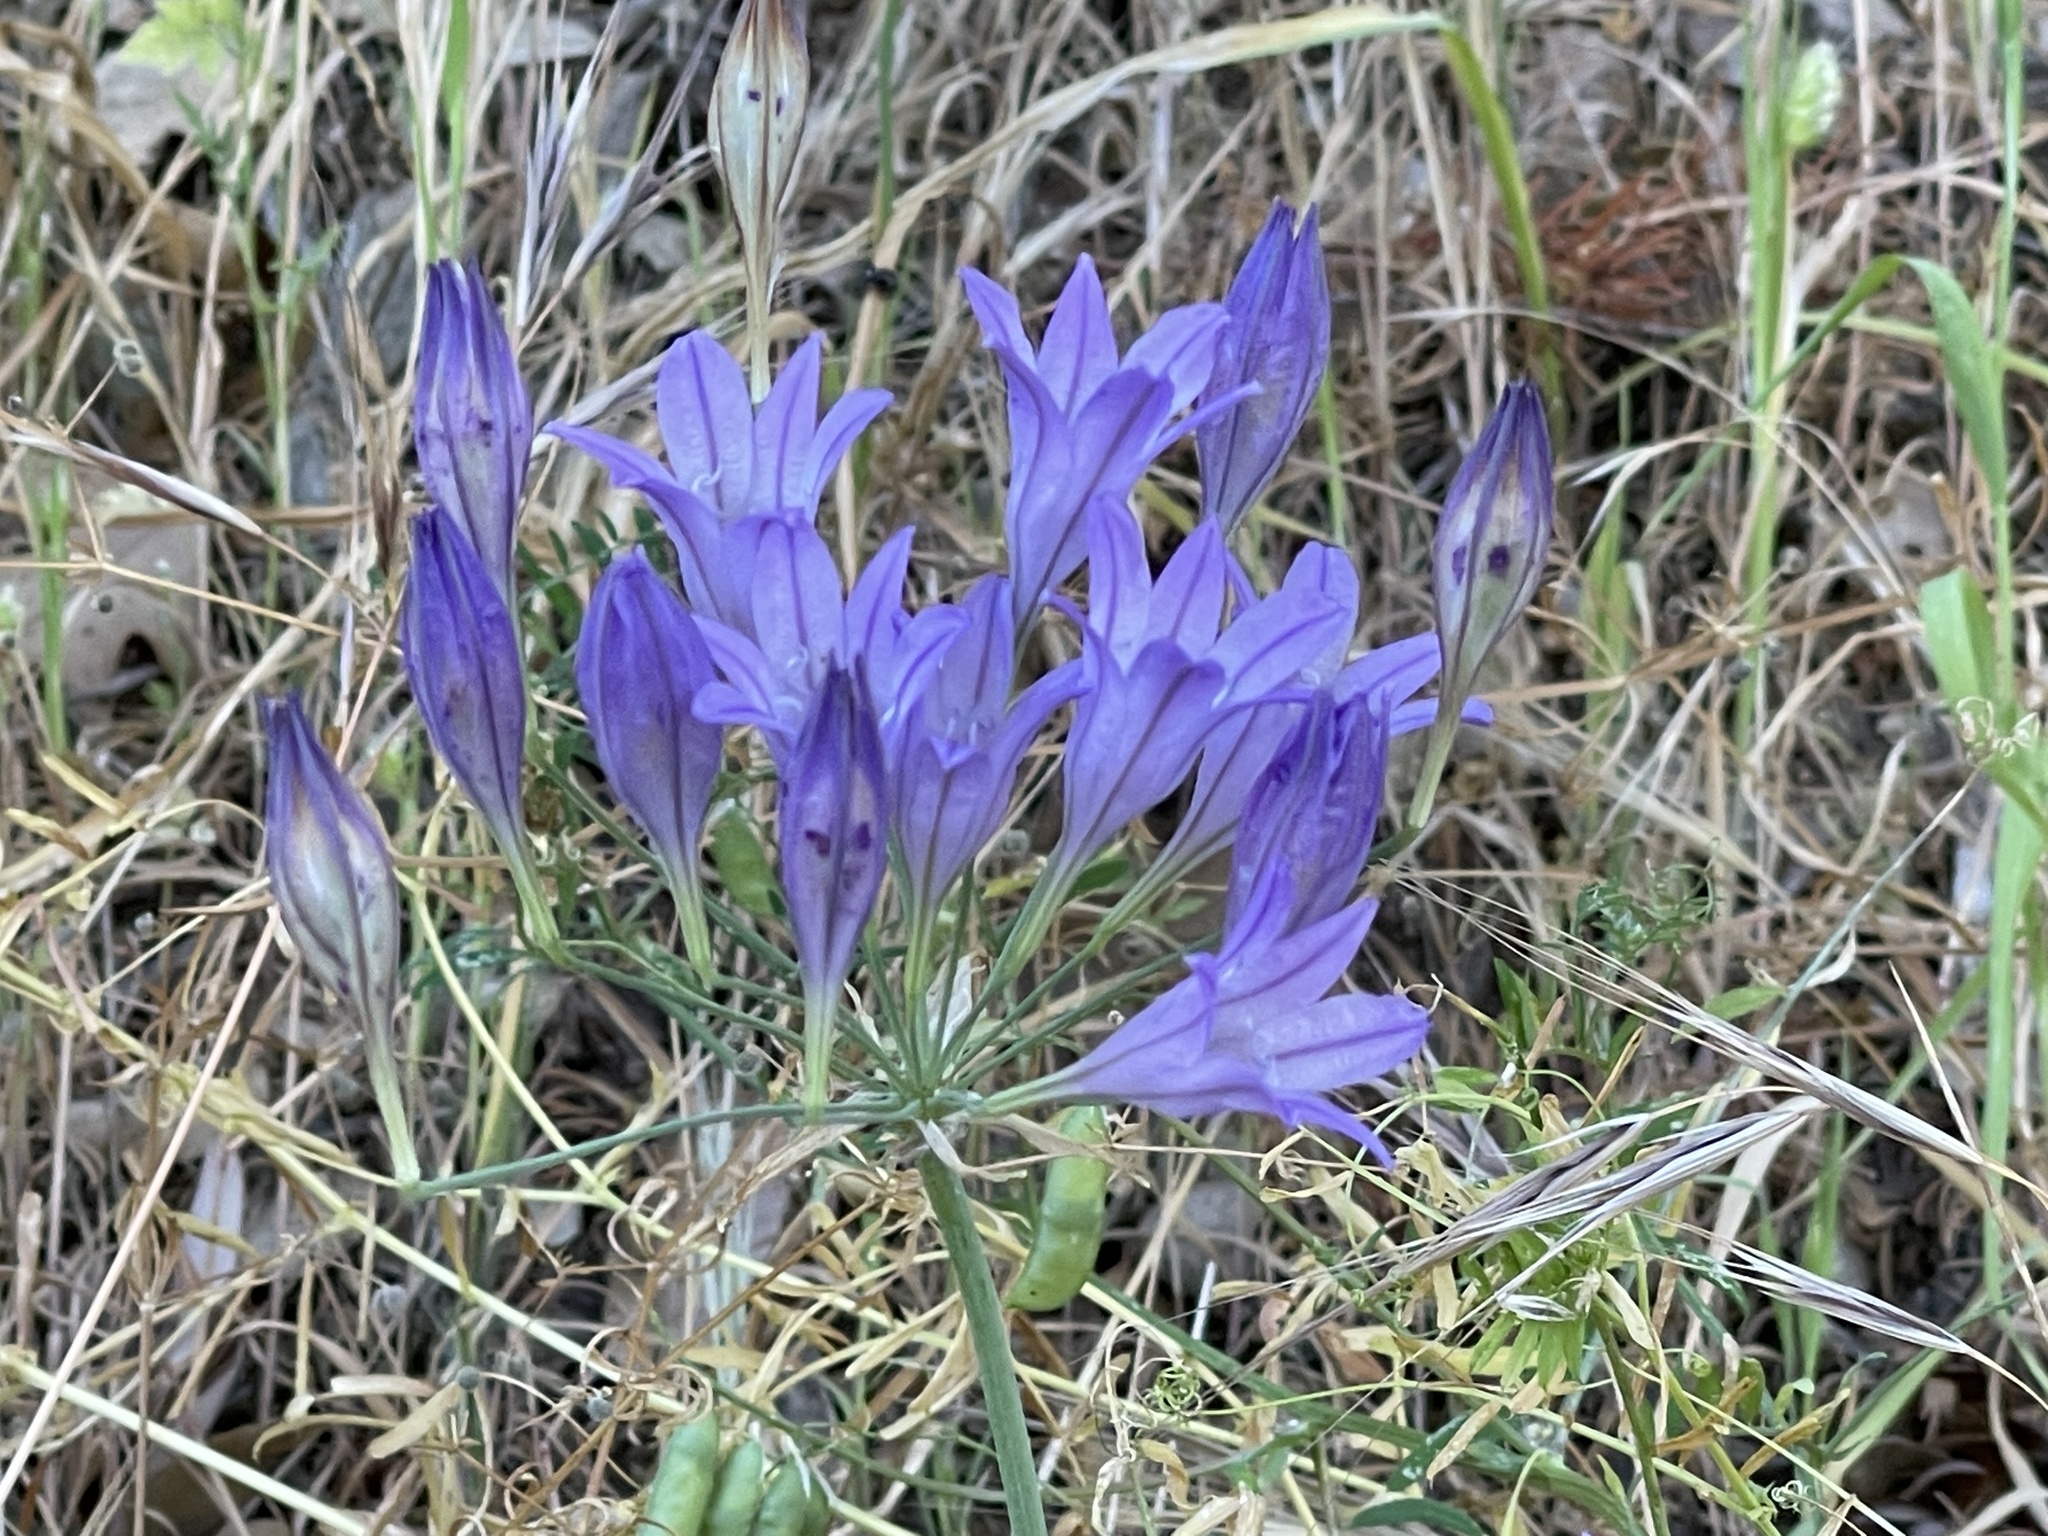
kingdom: Plantae
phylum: Tracheophyta
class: Liliopsida
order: Asparagales
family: Asparagaceae
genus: Triteleia
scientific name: Triteleia laxa
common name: Triplet-lily
